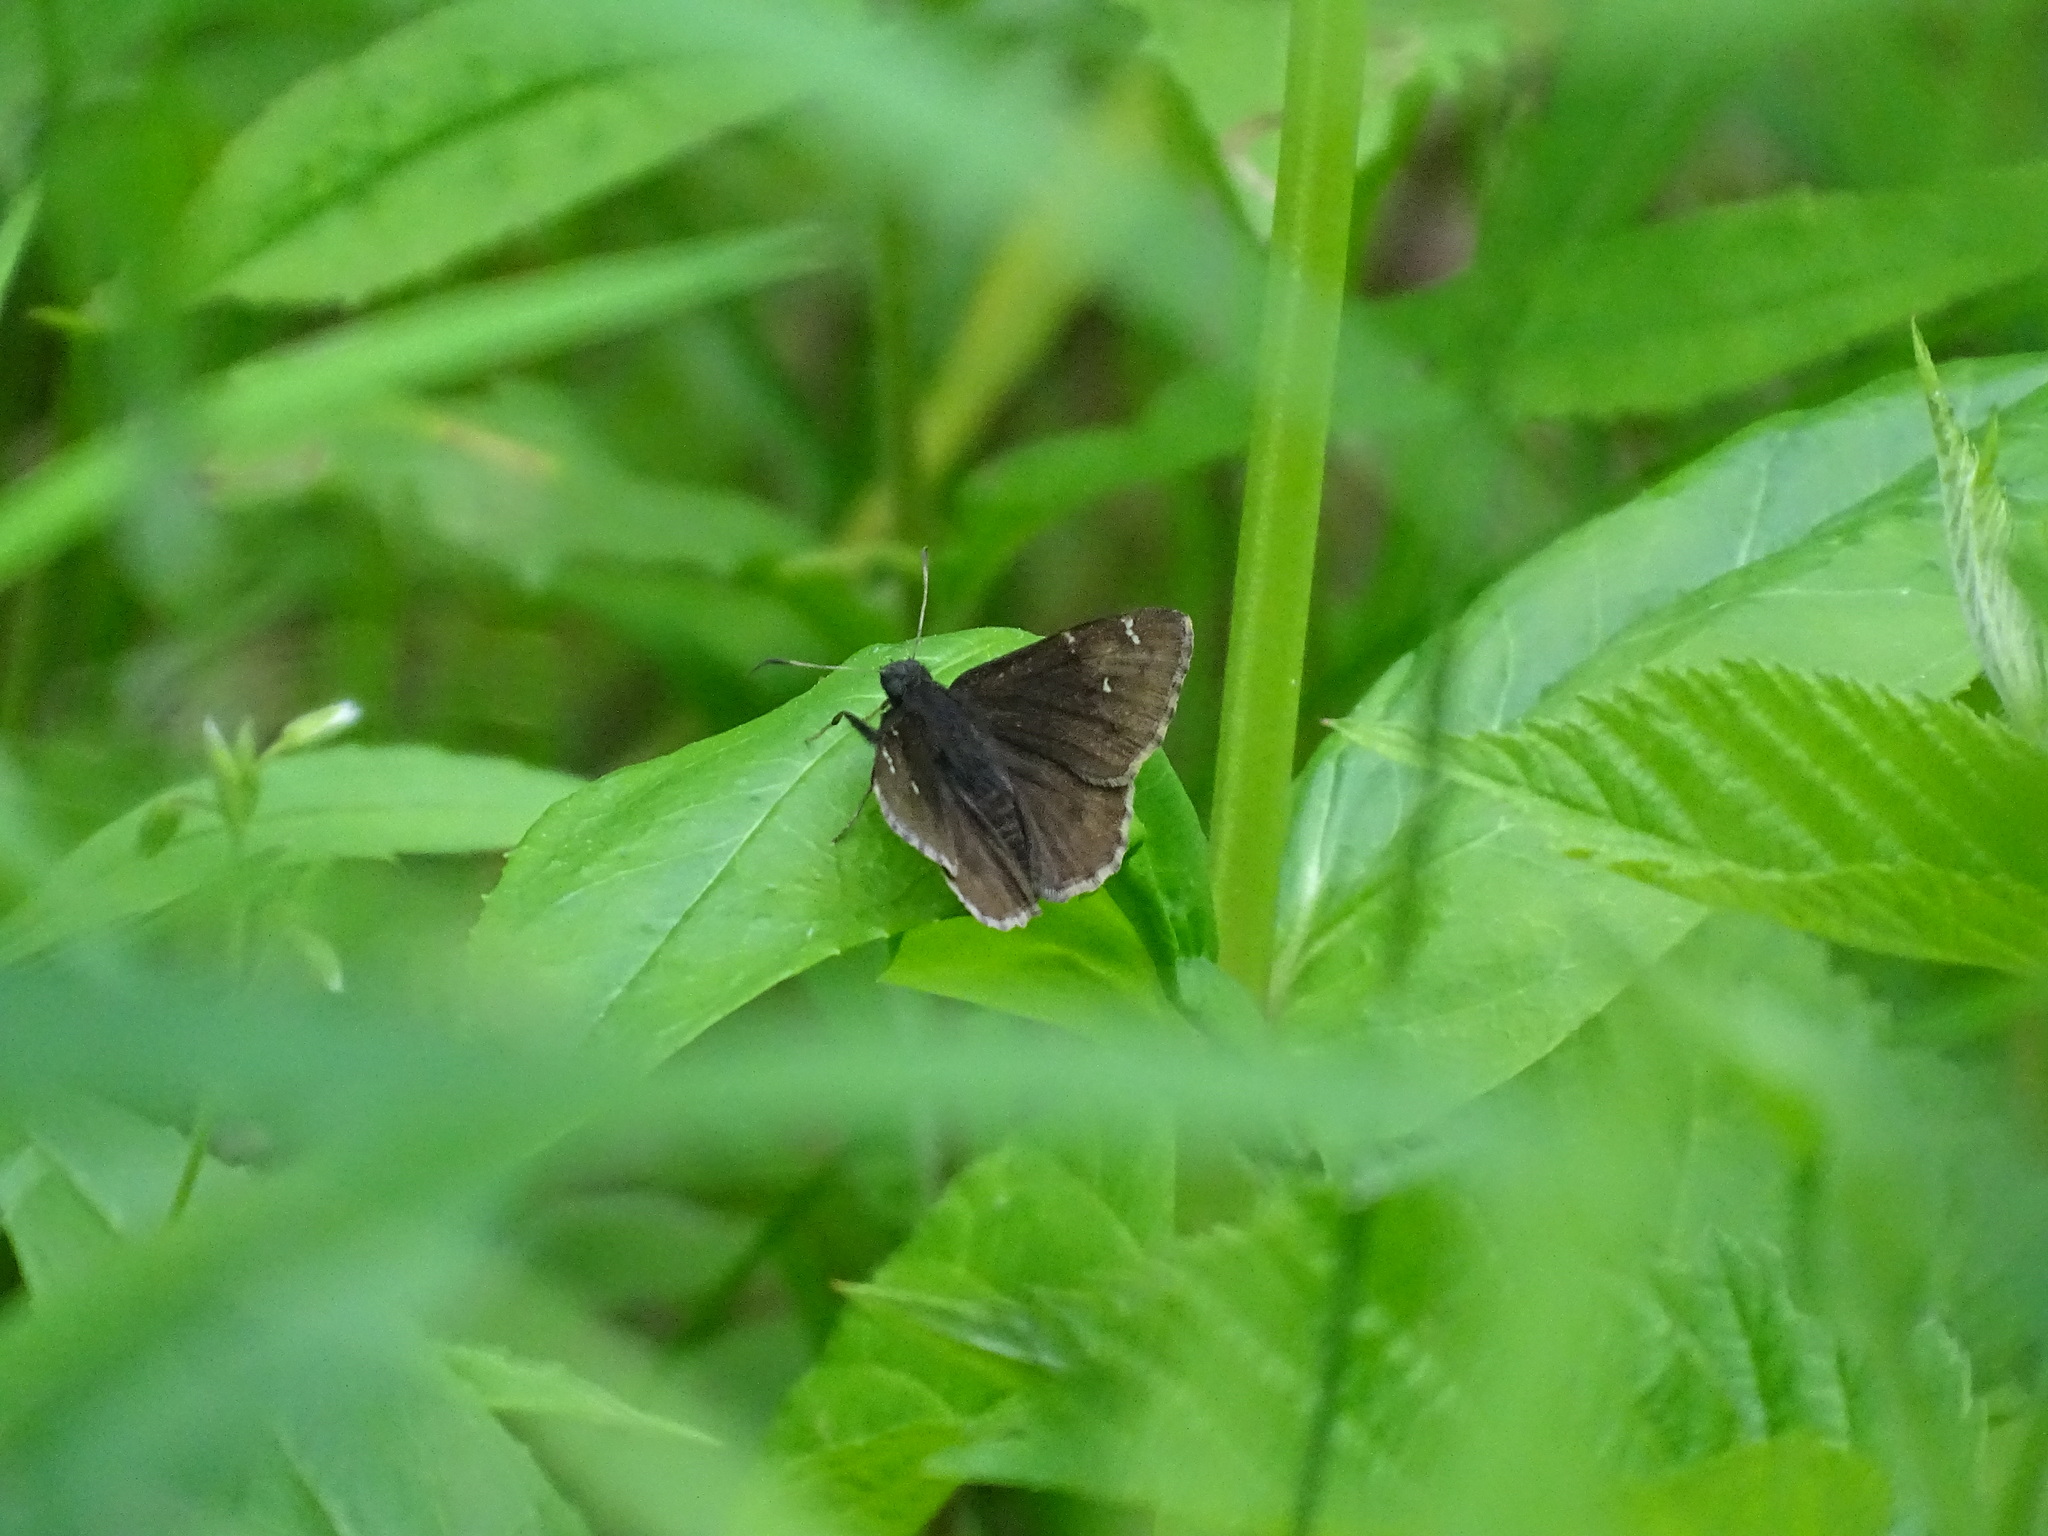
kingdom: Animalia
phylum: Arthropoda
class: Insecta
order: Lepidoptera
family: Hesperiidae
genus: Thorybes
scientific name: Thorybes pylades
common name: Northern cloudywing
